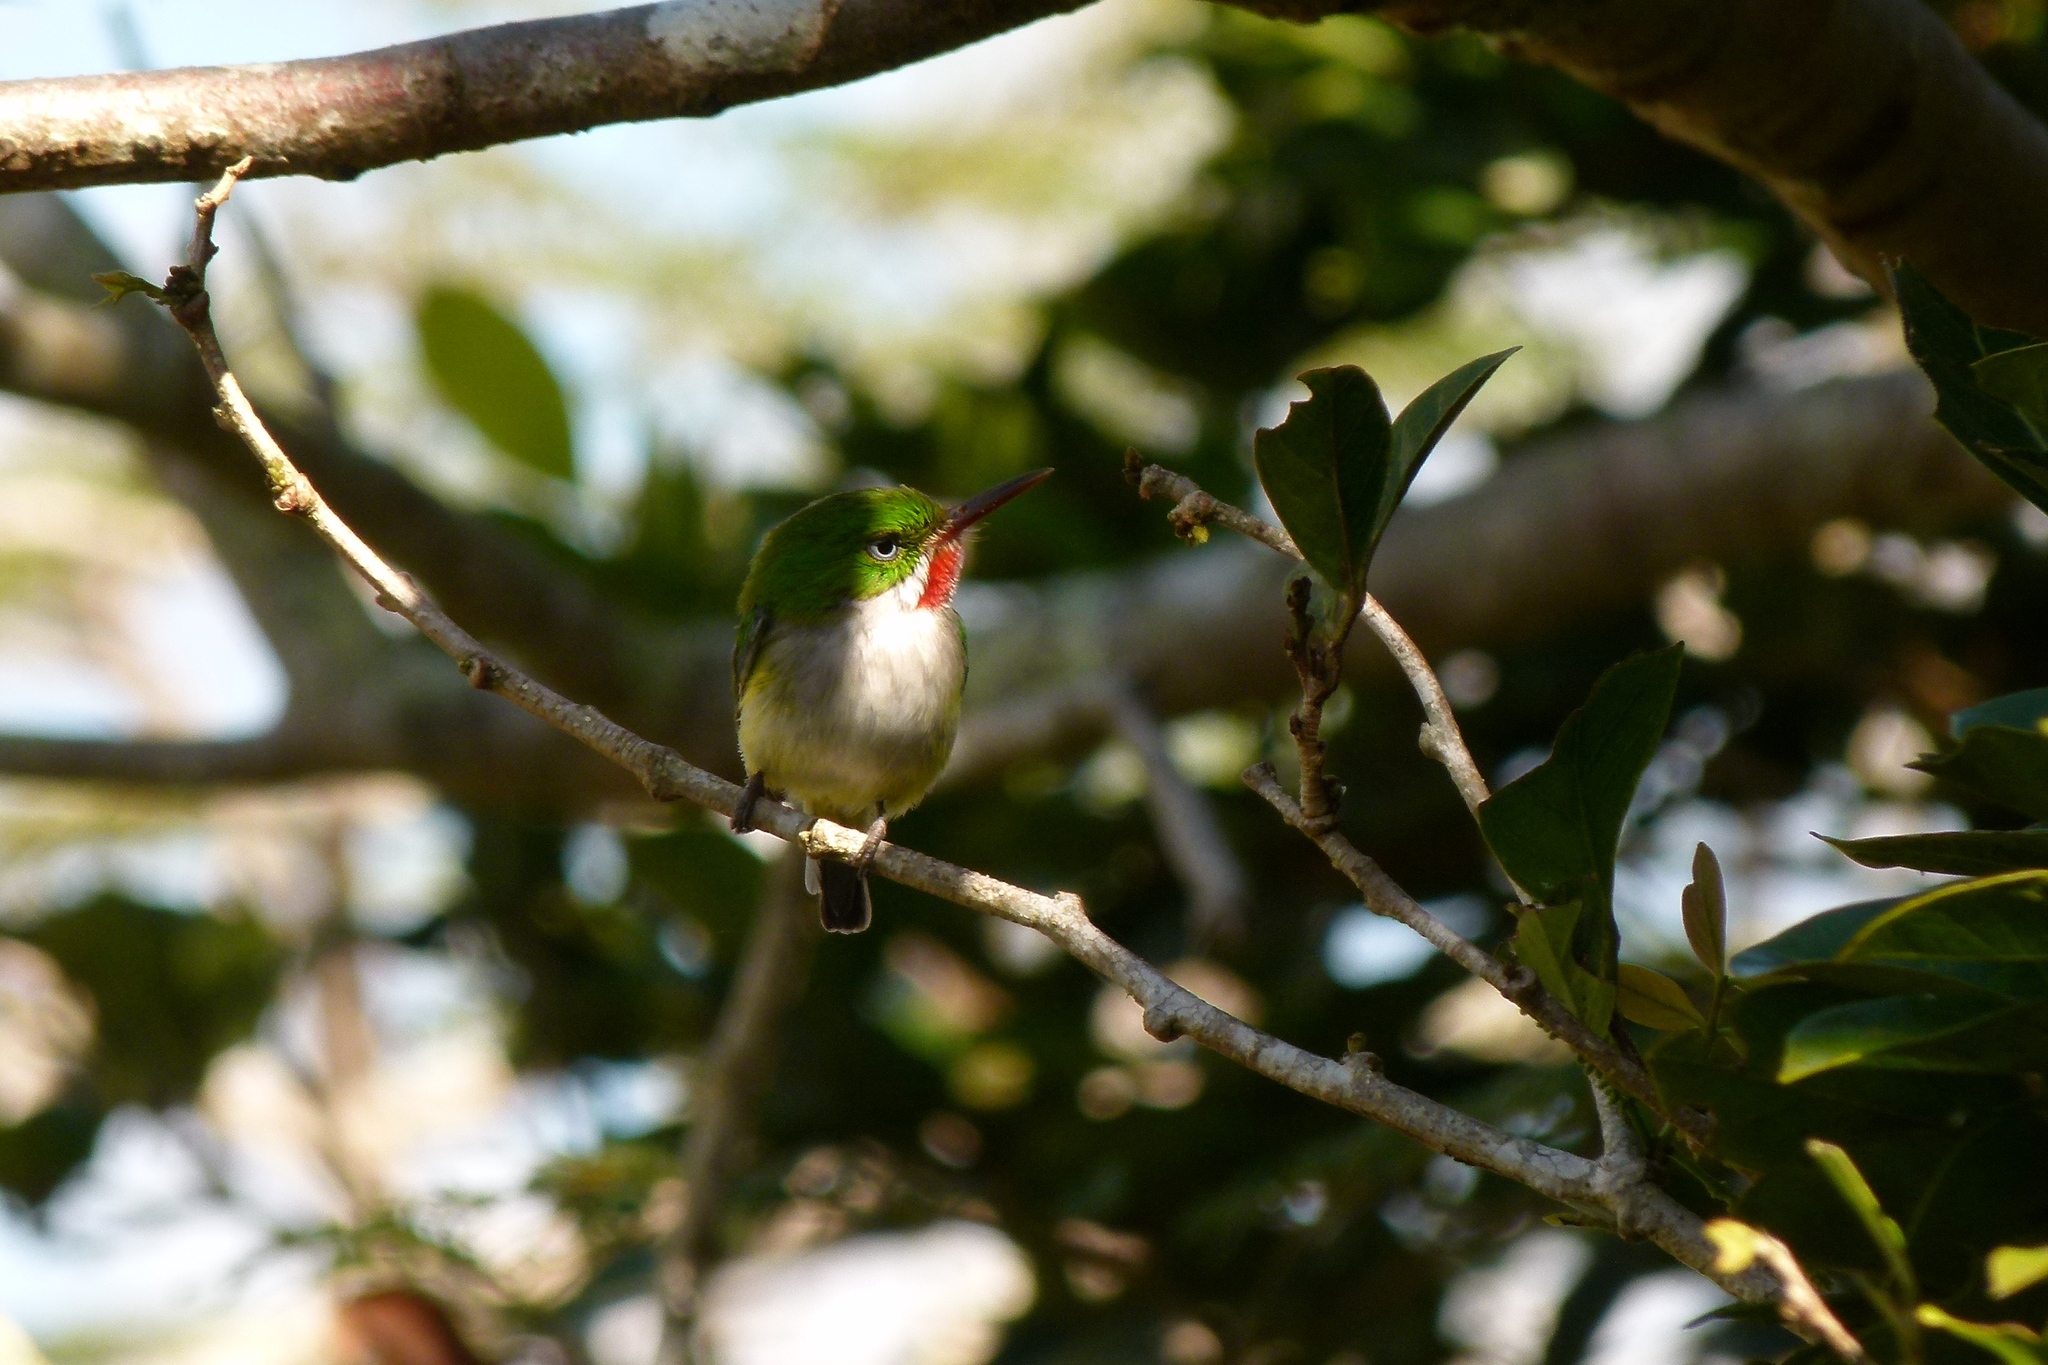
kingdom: Animalia
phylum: Chordata
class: Aves
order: Coraciiformes
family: Todidae
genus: Todus
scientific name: Todus mexicanus
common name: Puerto rican tody
